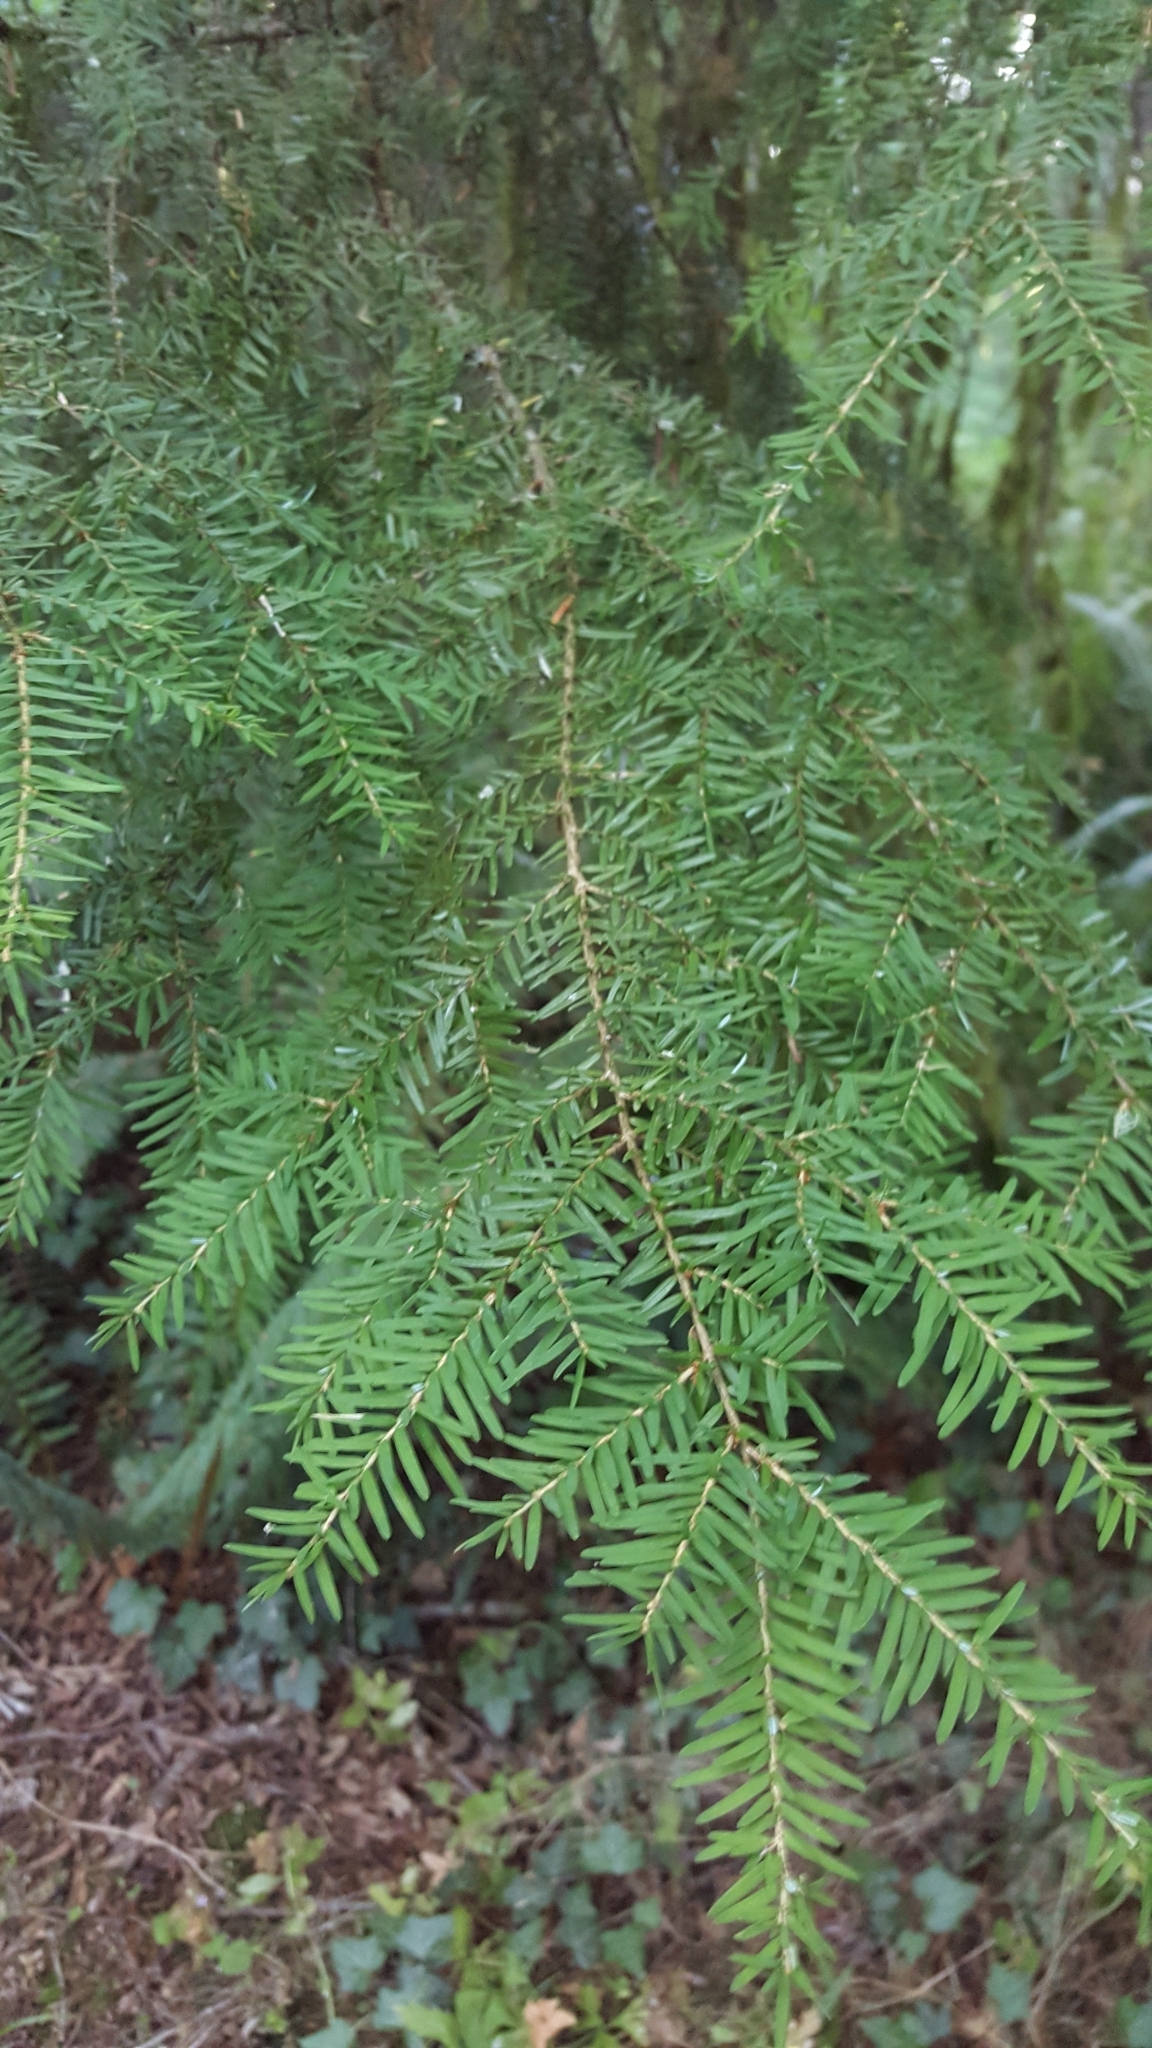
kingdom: Plantae
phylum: Tracheophyta
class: Pinopsida
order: Pinales
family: Pinaceae
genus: Tsuga
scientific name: Tsuga heterophylla
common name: Western hemlock
